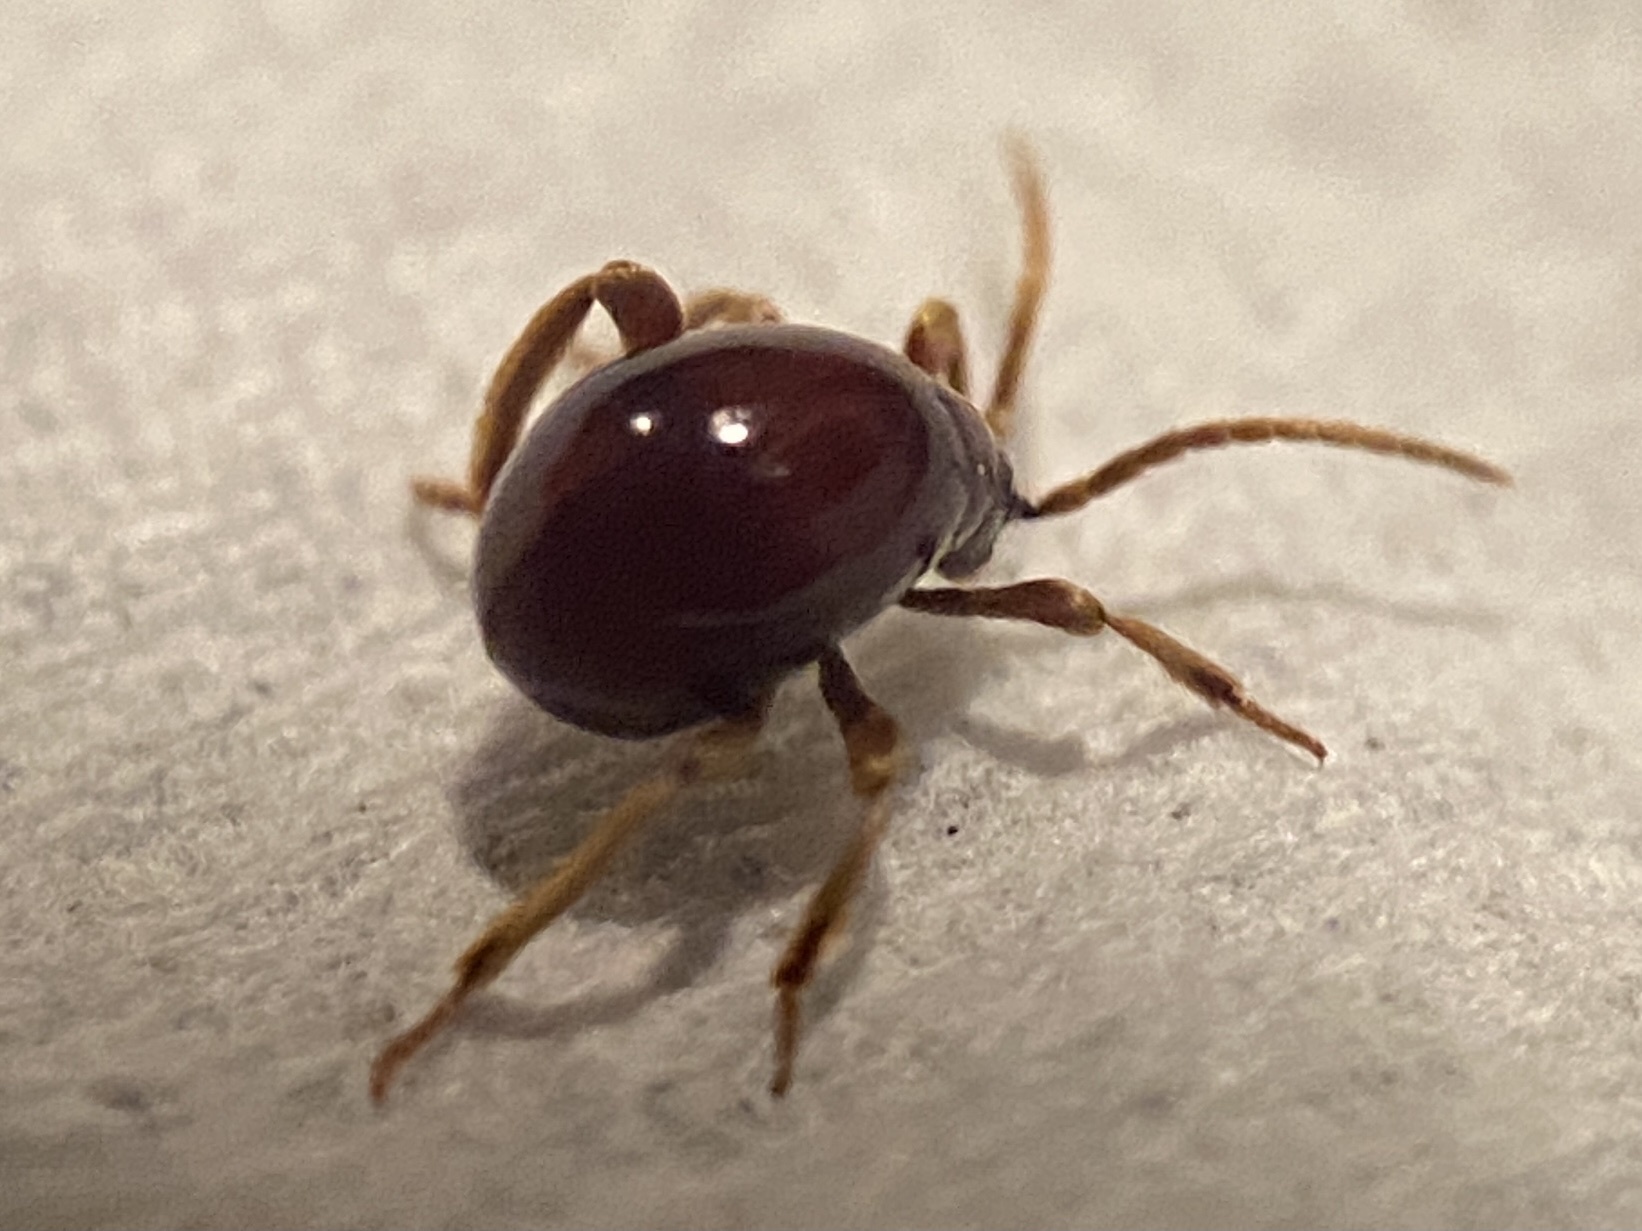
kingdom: Animalia
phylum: Arthropoda
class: Insecta
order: Coleoptera
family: Ptinidae
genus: Gibbium
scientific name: Gibbium aequinoctiale
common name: Smooth spider beetle
